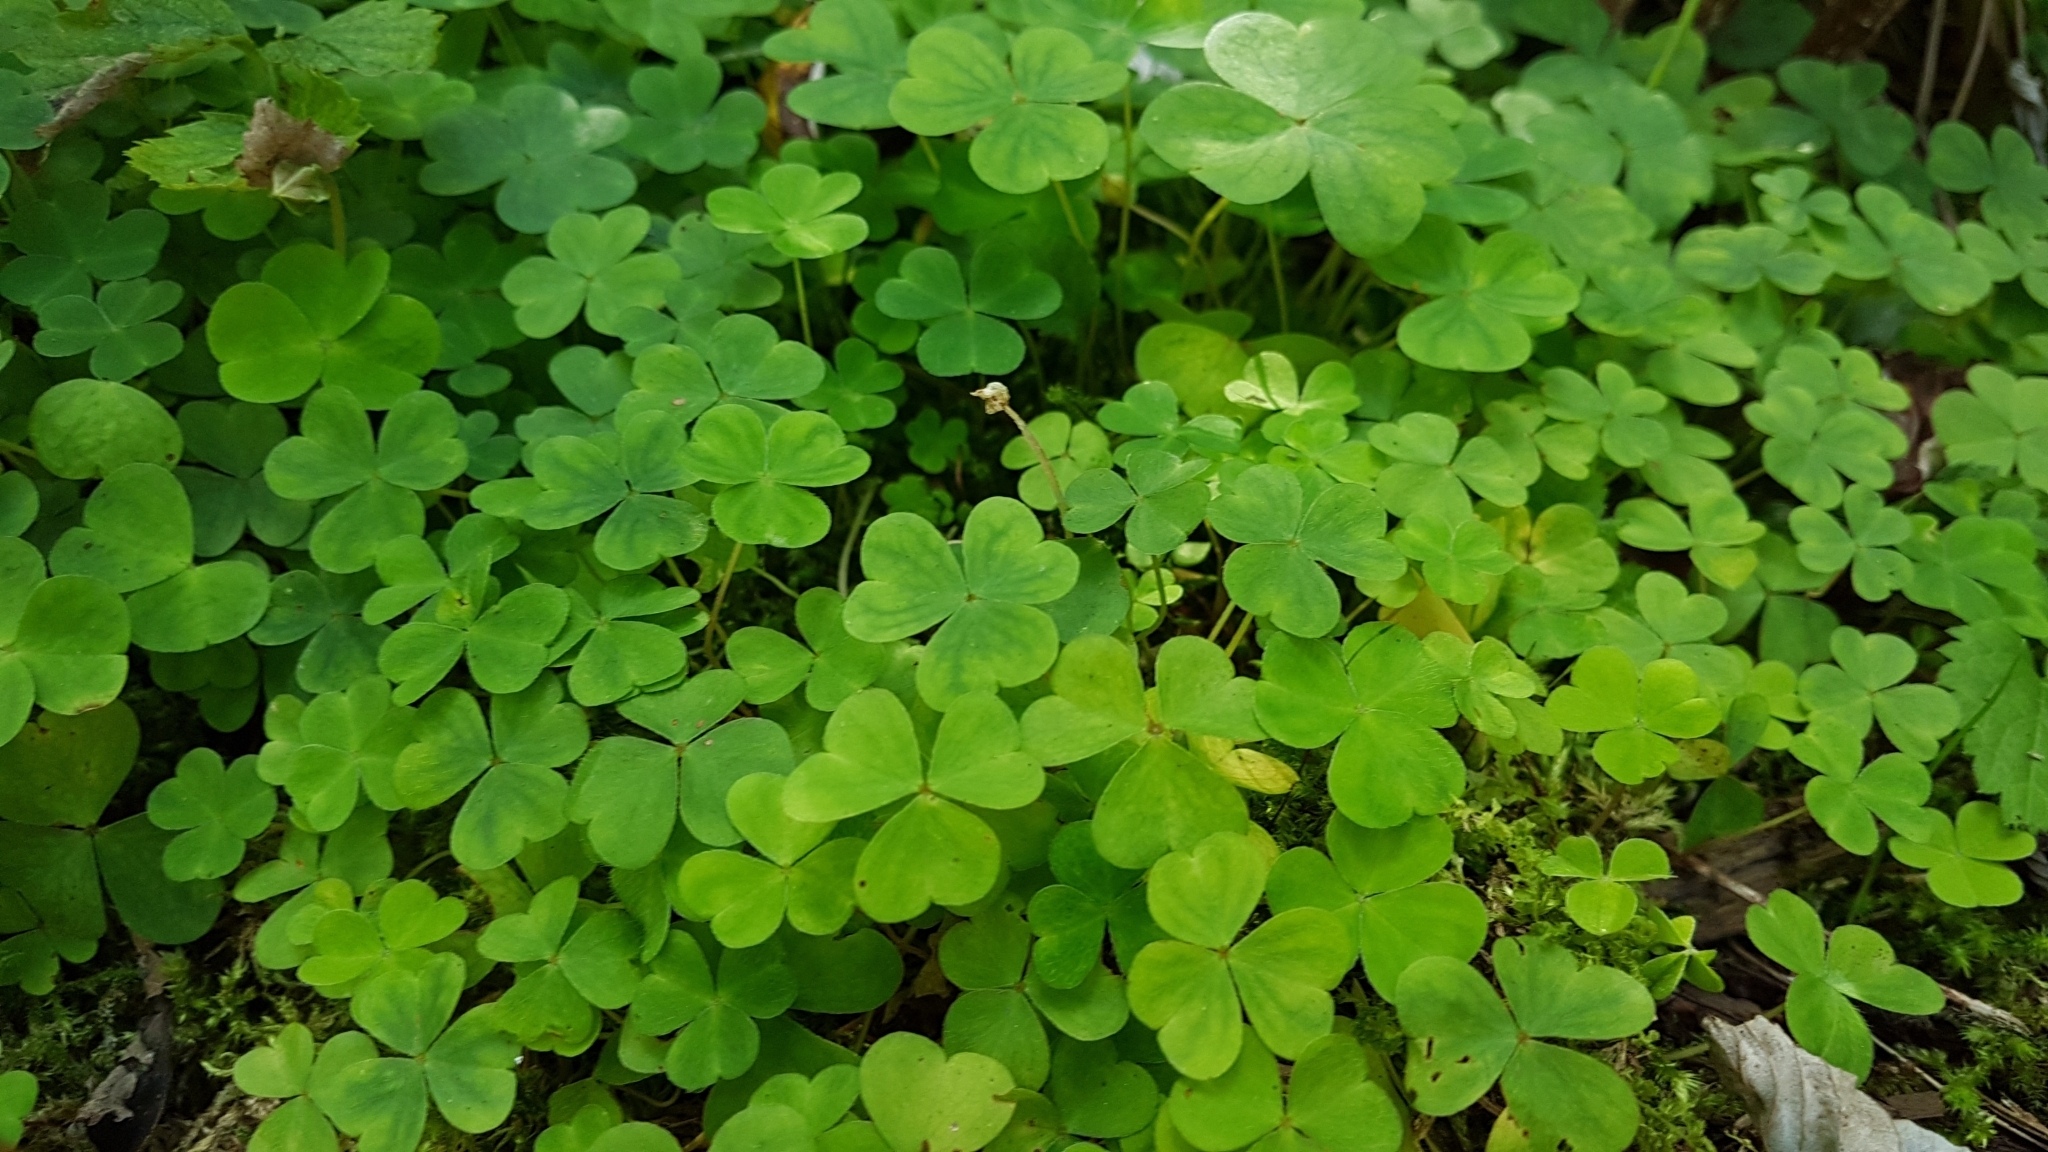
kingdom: Plantae
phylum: Tracheophyta
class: Magnoliopsida
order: Oxalidales
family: Oxalidaceae
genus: Oxalis
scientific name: Oxalis acetosella
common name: Wood-sorrel
